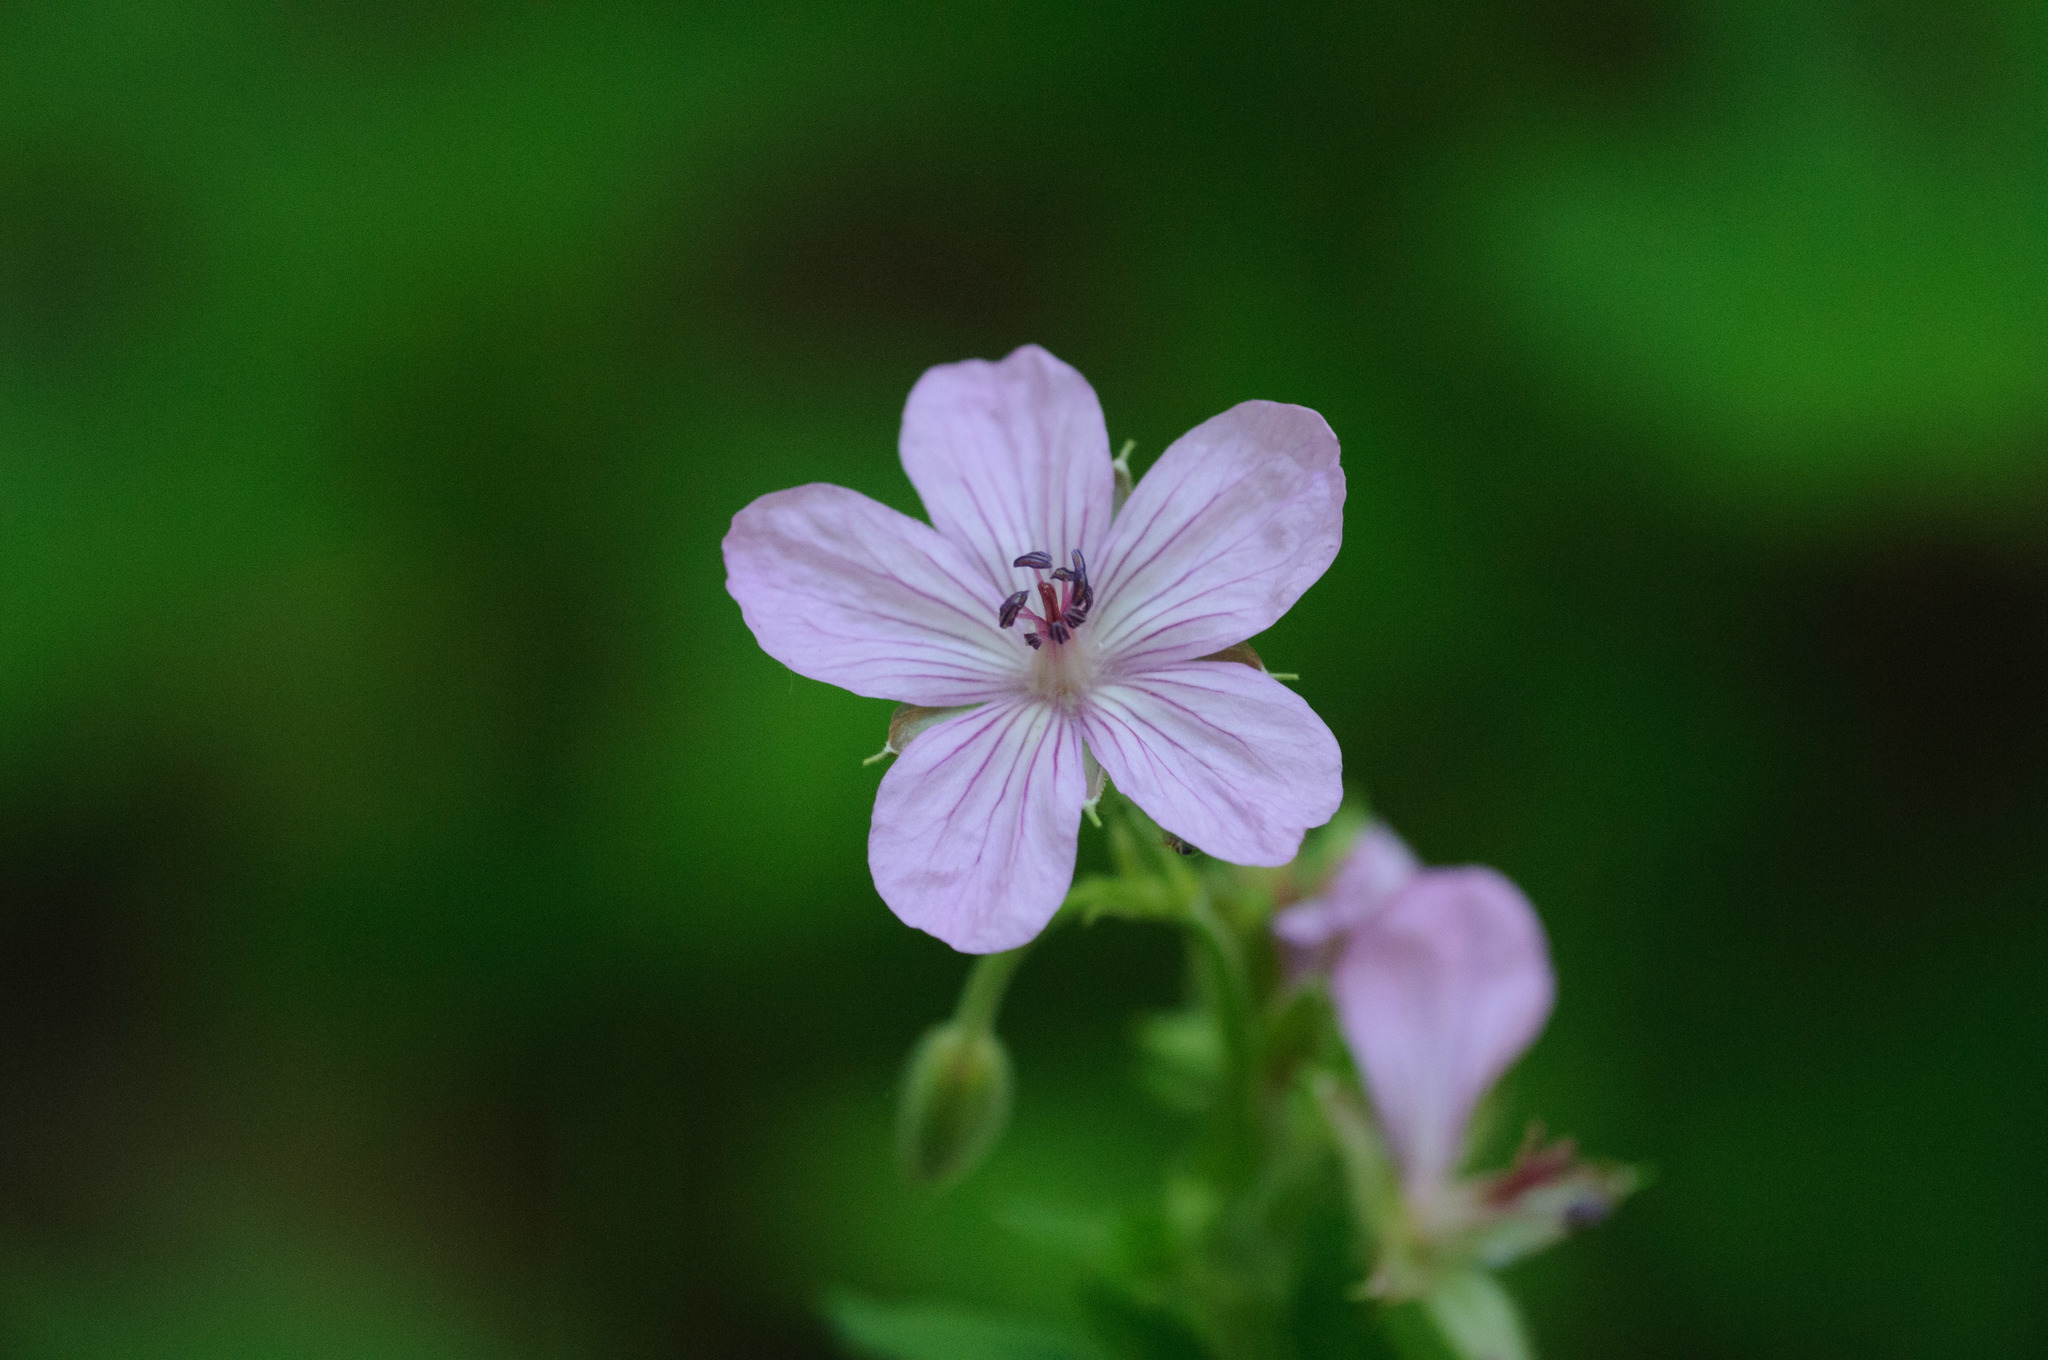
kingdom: Plantae
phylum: Tracheophyta
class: Magnoliopsida
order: Geraniales
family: Geraniaceae
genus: Geranium
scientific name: Geranium viscosissimum
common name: Purple geranium
